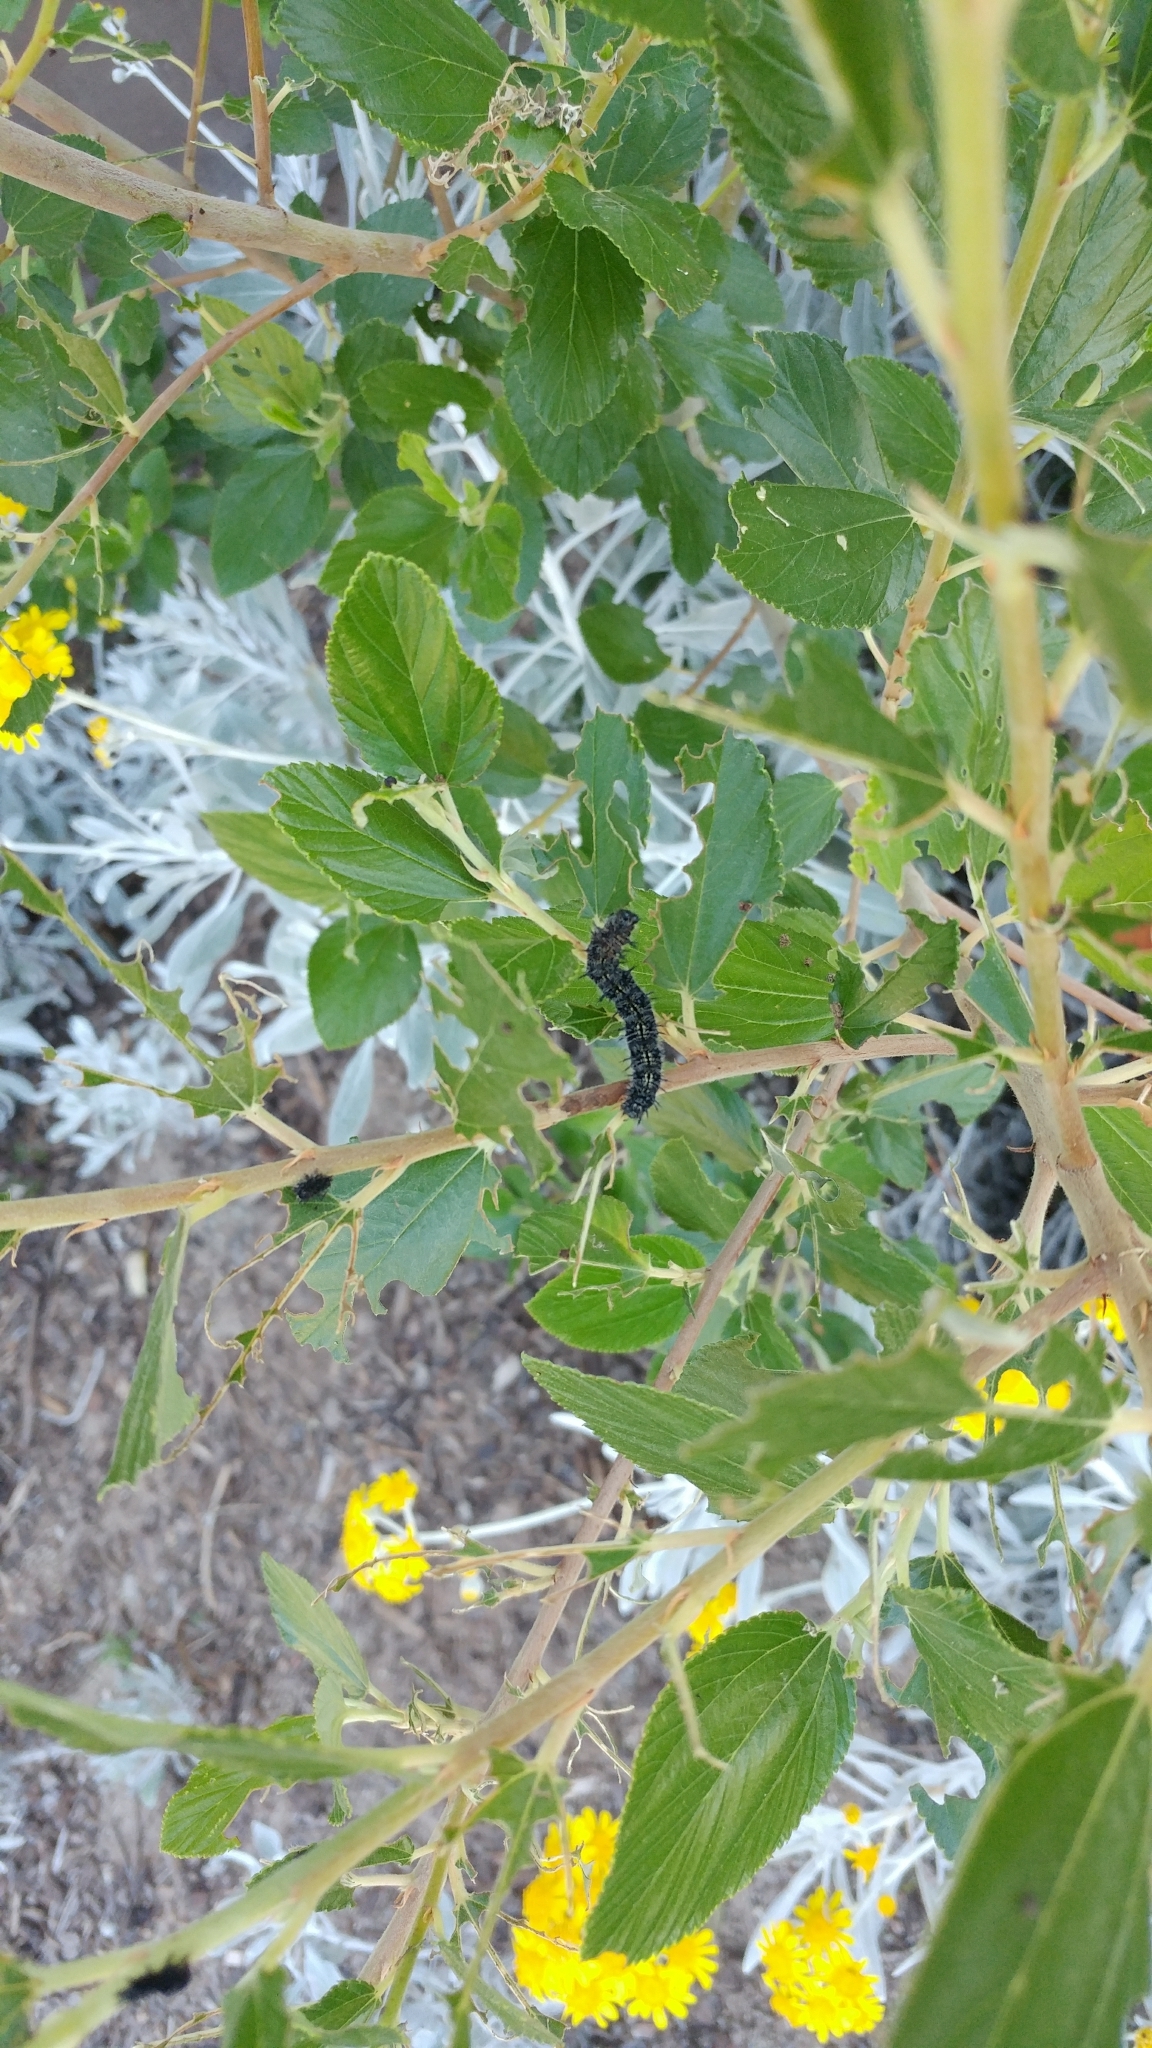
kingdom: Animalia
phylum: Arthropoda
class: Insecta
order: Lepidoptera
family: Nymphalidae
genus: Nymphalis
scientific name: Nymphalis californica
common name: California tortoiseshell
